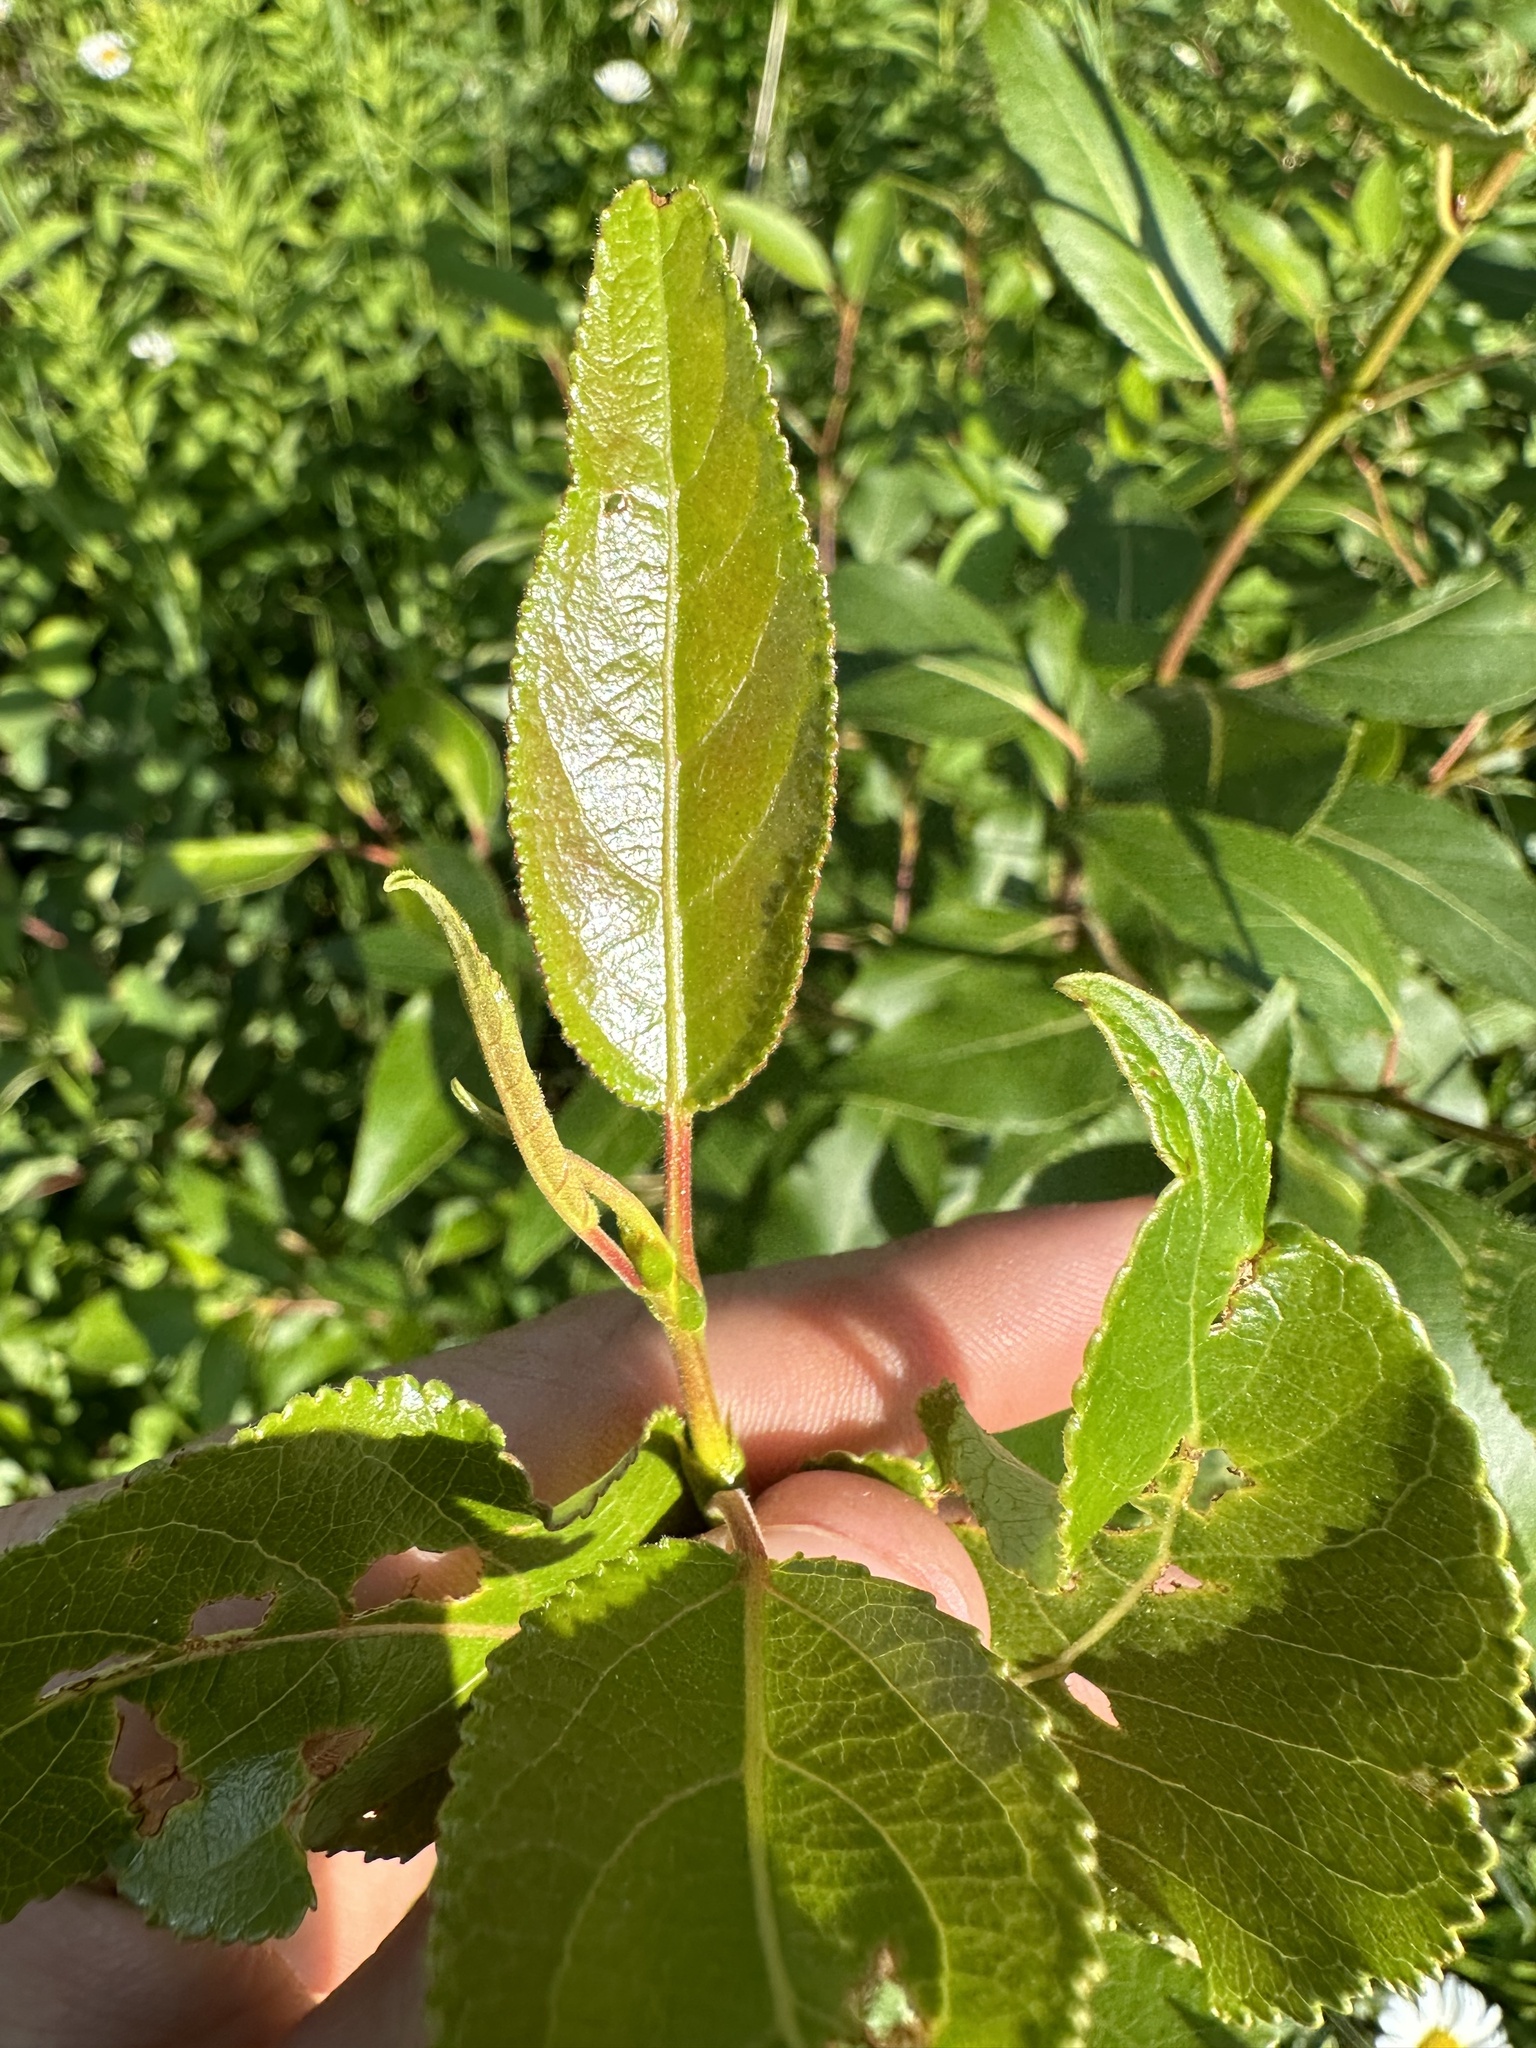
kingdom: Plantae
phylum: Tracheophyta
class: Magnoliopsida
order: Malpighiales
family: Salicaceae
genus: Populus
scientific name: Populus balsamifera
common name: Balsam poplar
